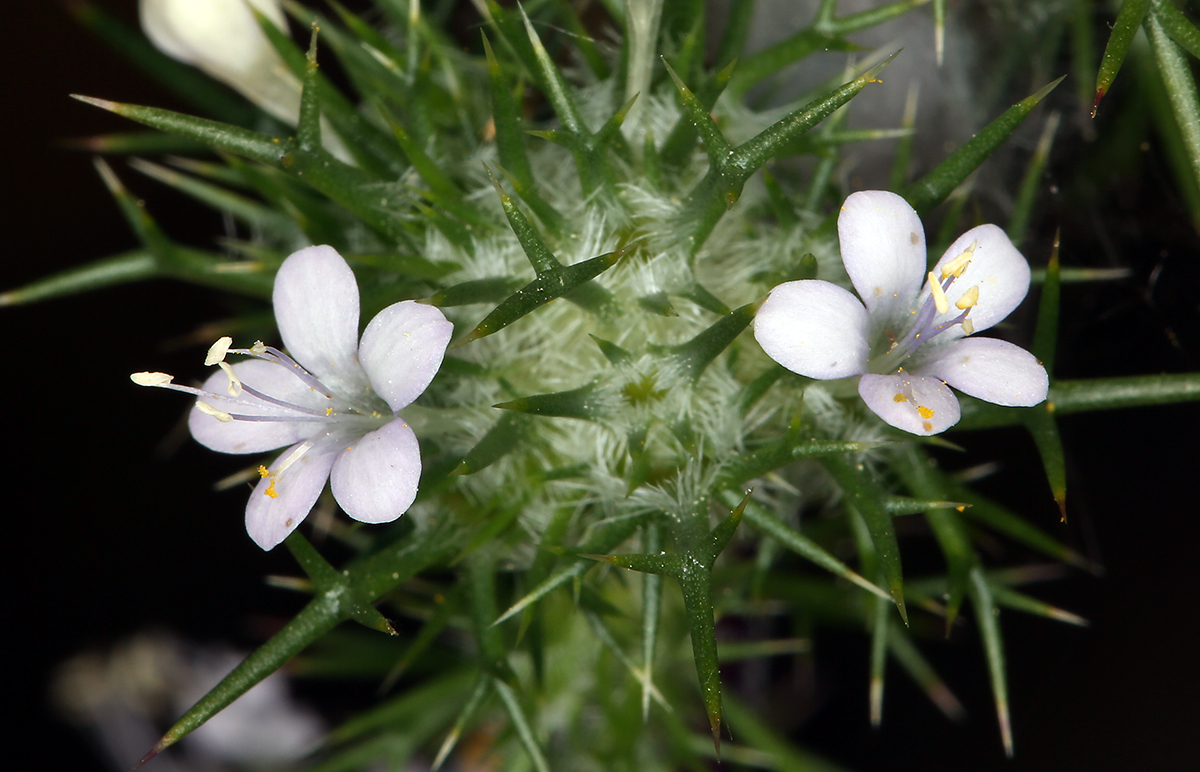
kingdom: Plantae
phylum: Tracheophyta
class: Magnoliopsida
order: Ericales
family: Polemoniaceae
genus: Navarretia
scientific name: Navarretia intertexta
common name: Needle-leaved navarretia
